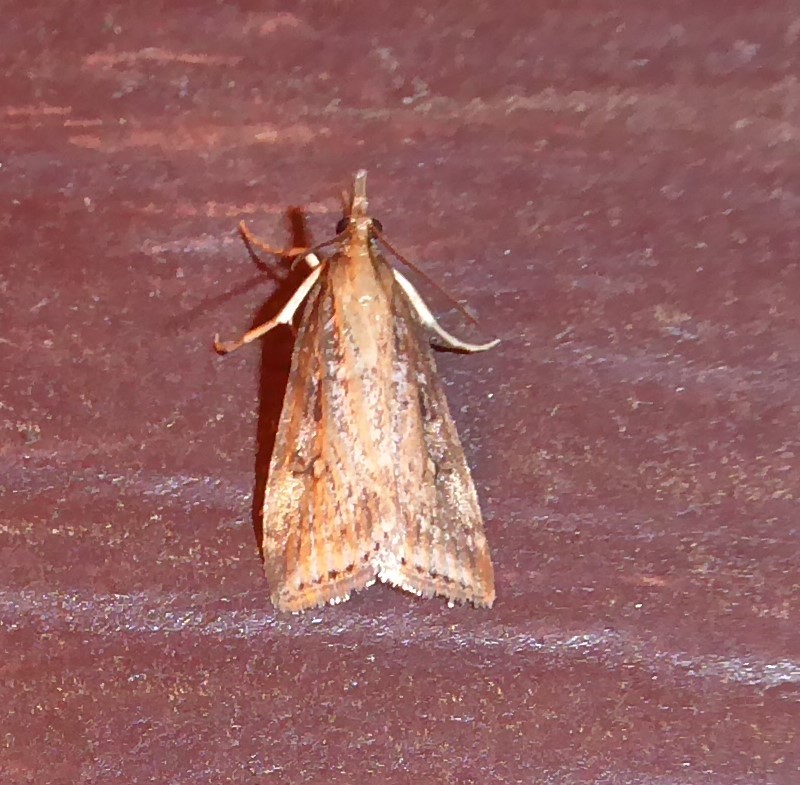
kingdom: Animalia
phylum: Arthropoda
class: Insecta
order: Lepidoptera
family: Crambidae
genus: Eudonia
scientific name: Eudonia octophora
